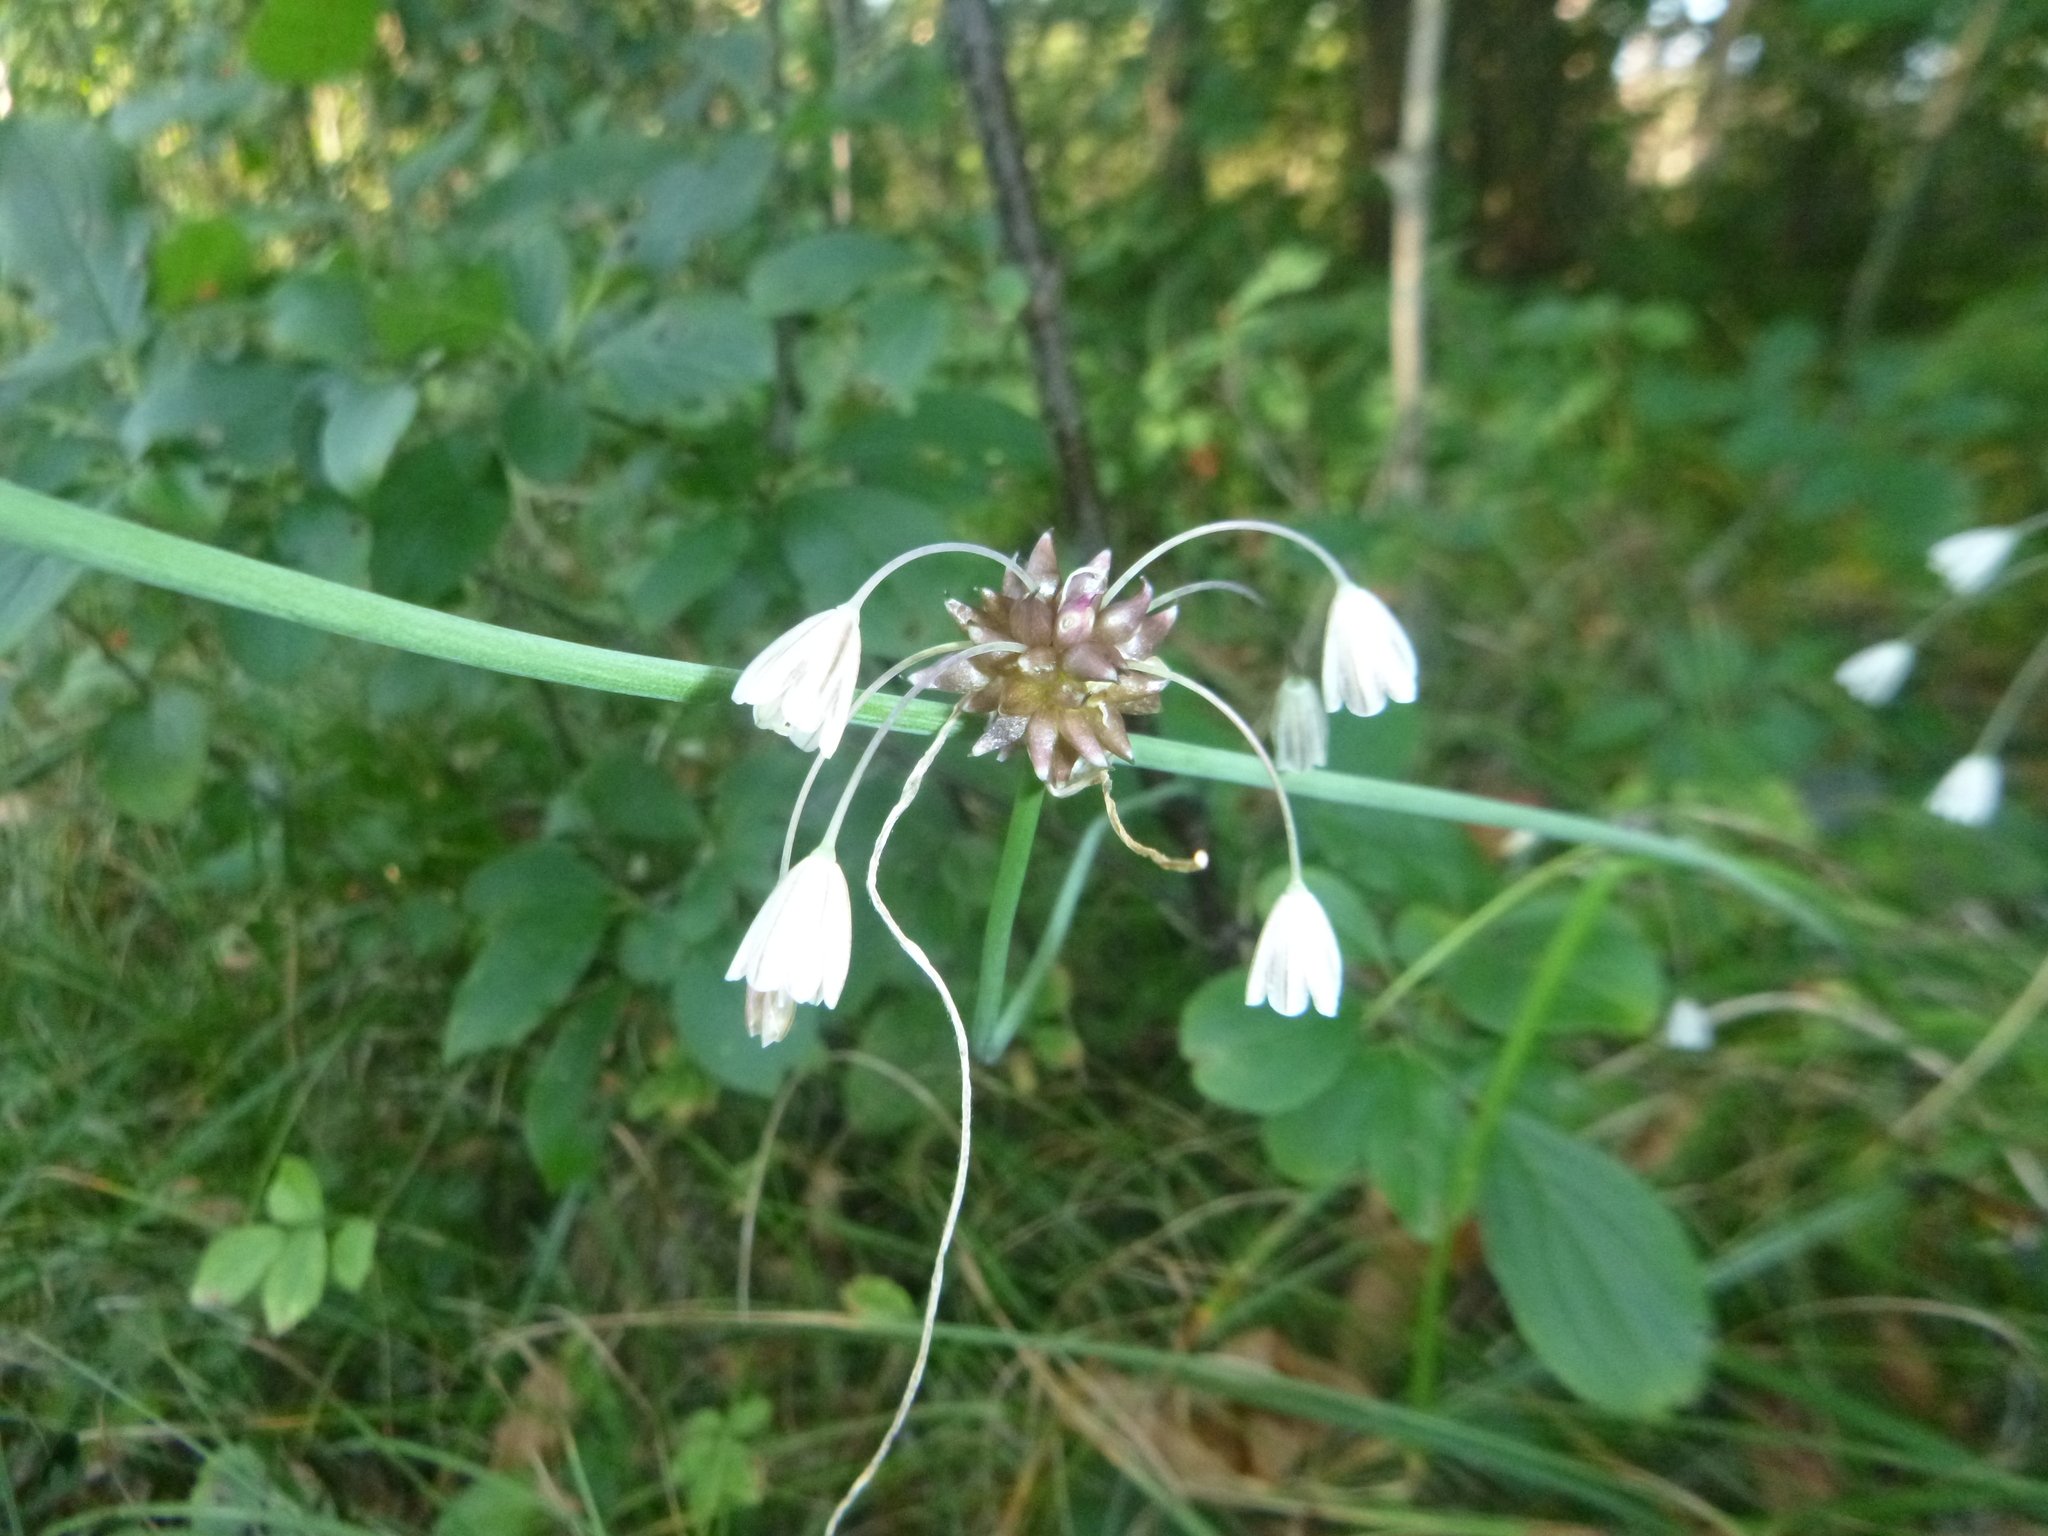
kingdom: Plantae
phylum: Tracheophyta
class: Liliopsida
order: Asparagales
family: Amaryllidaceae
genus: Allium
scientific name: Allium oleraceum
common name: Field garlic
